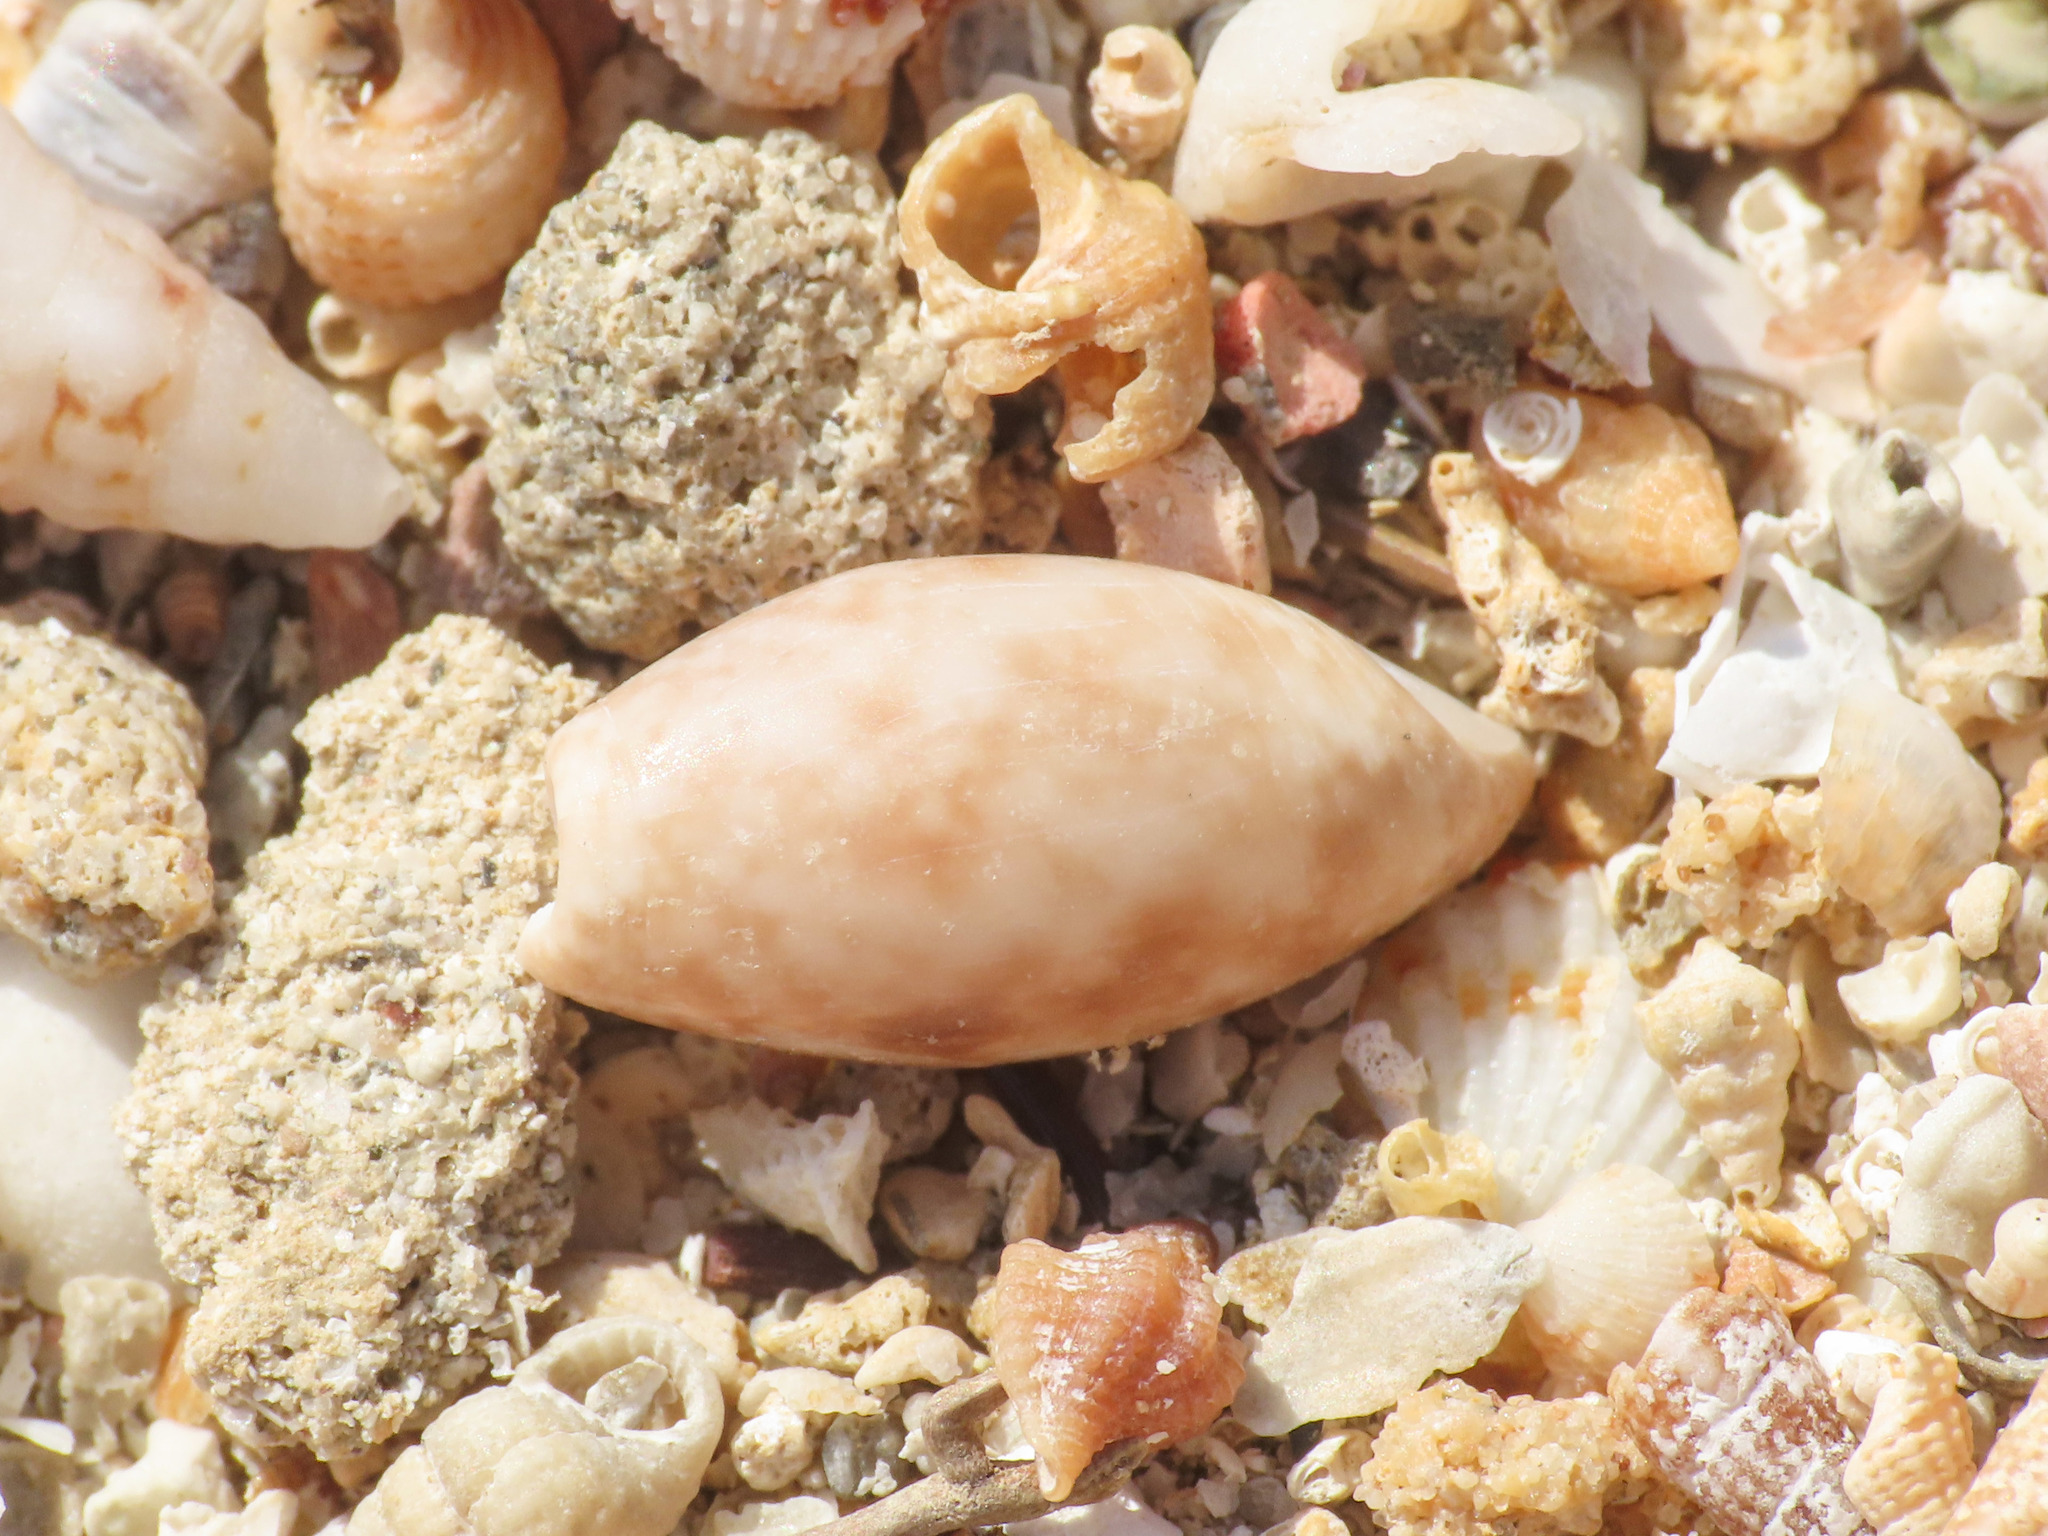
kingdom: Animalia
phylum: Mollusca
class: Gastropoda
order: Cephalaspidea
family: Bullidae
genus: Bulla
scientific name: Bulla striata
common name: Common atlantic bubble
